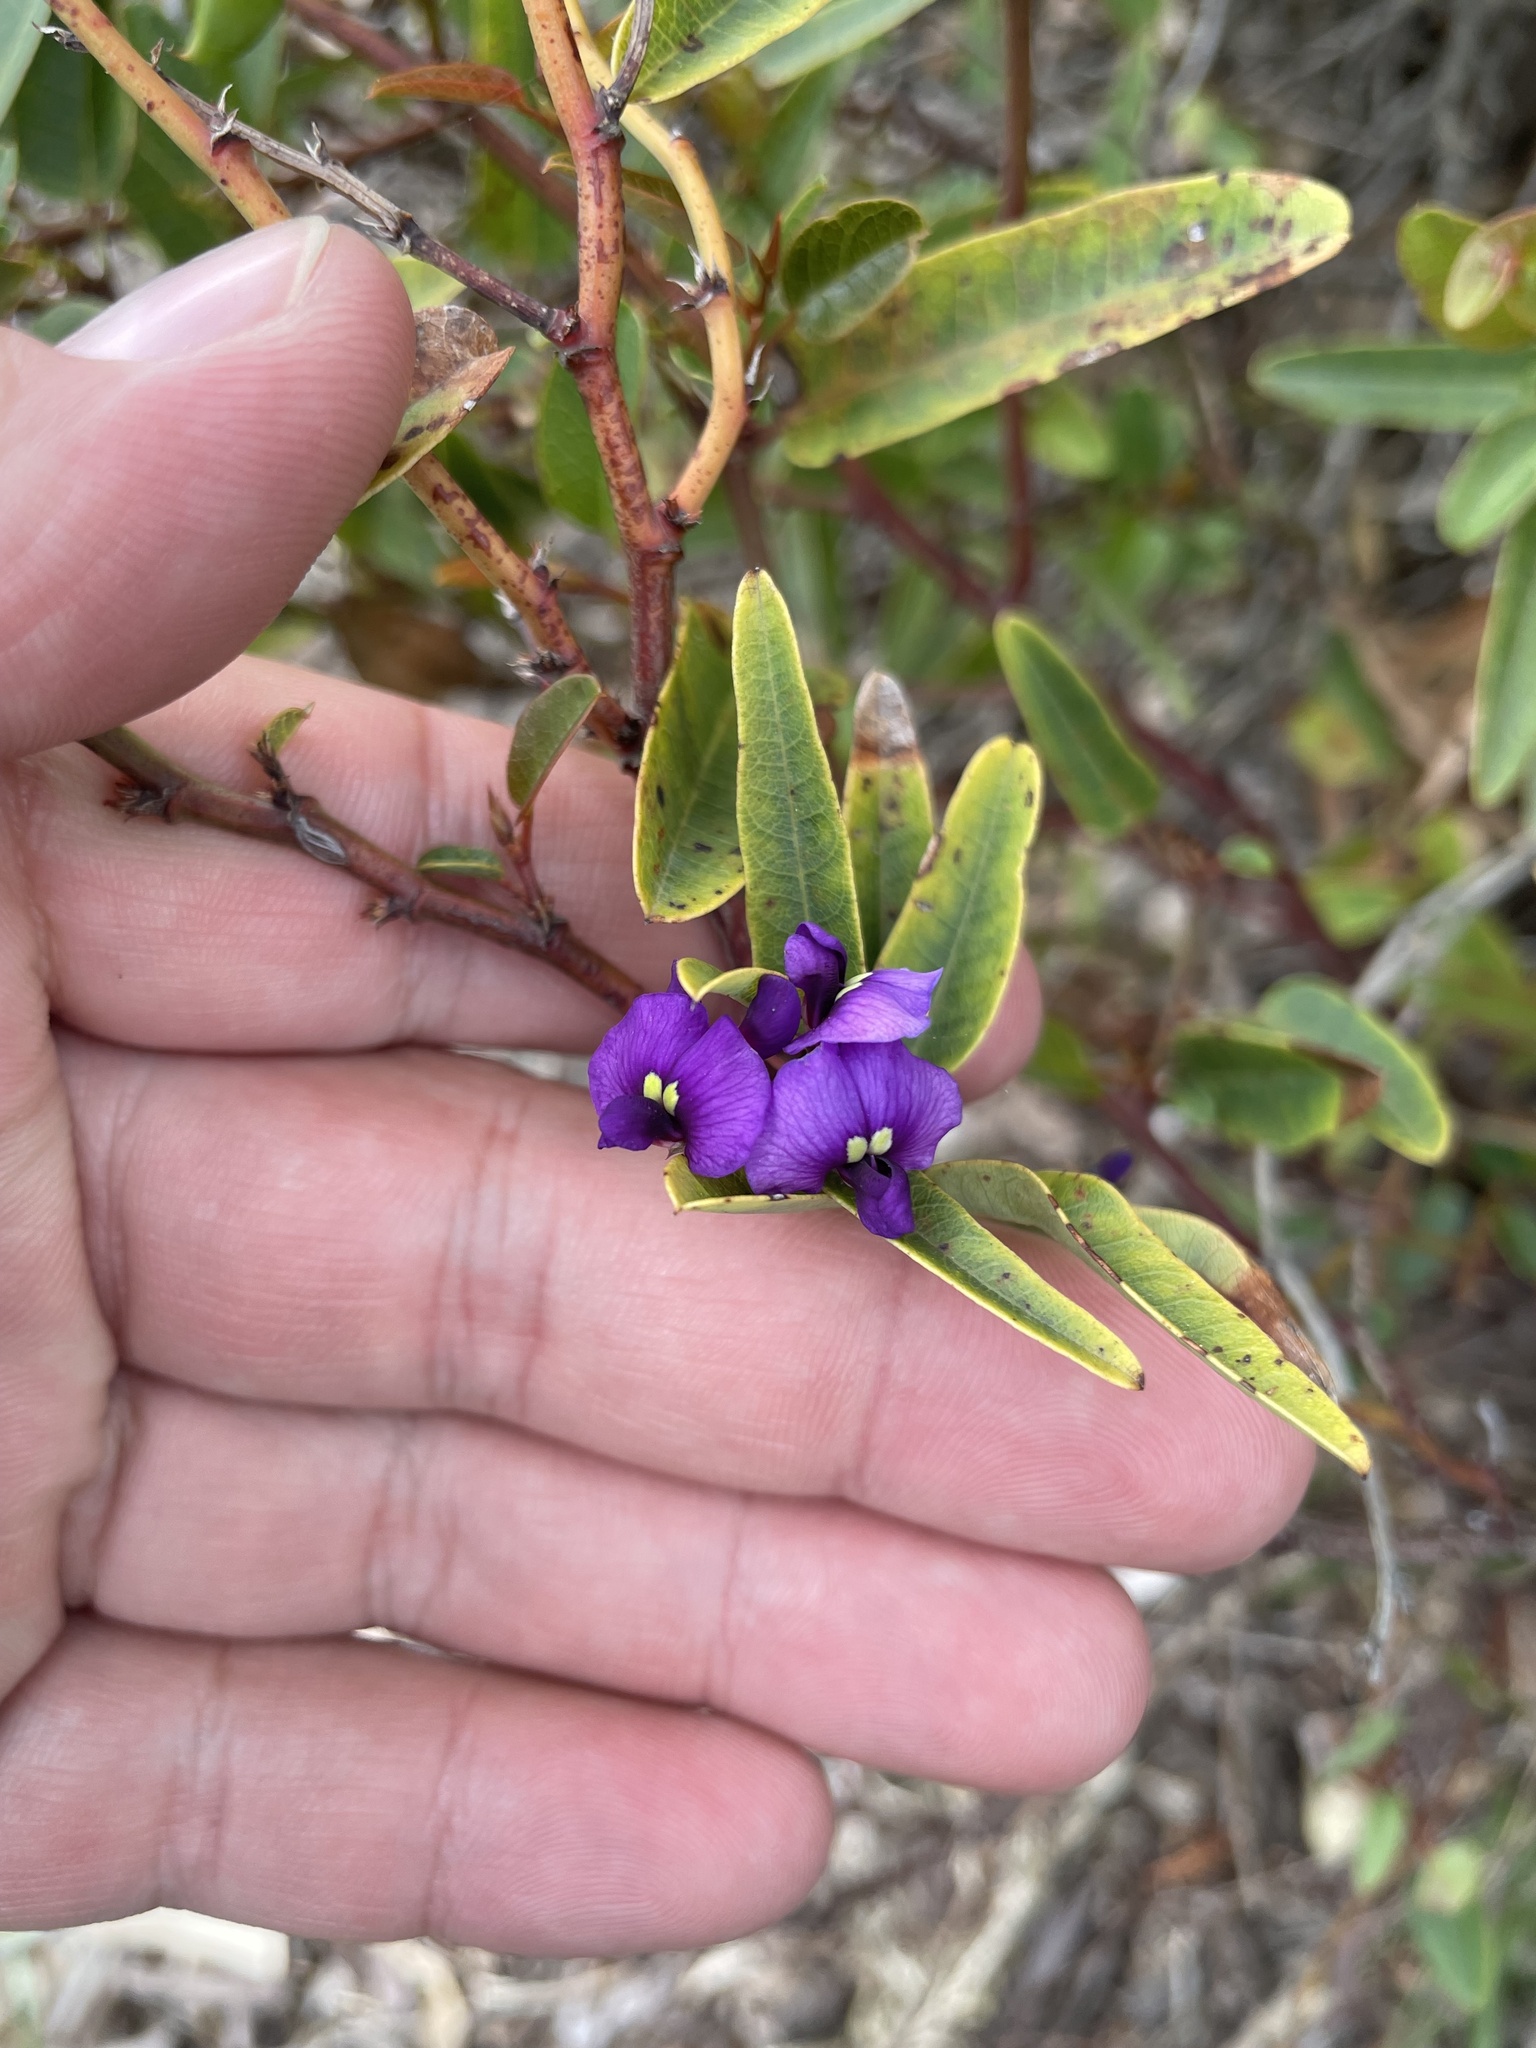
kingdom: Plantae
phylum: Tracheophyta
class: Magnoliopsida
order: Fabales
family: Fabaceae
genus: Hardenbergia
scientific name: Hardenbergia violacea
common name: Coral-pea
